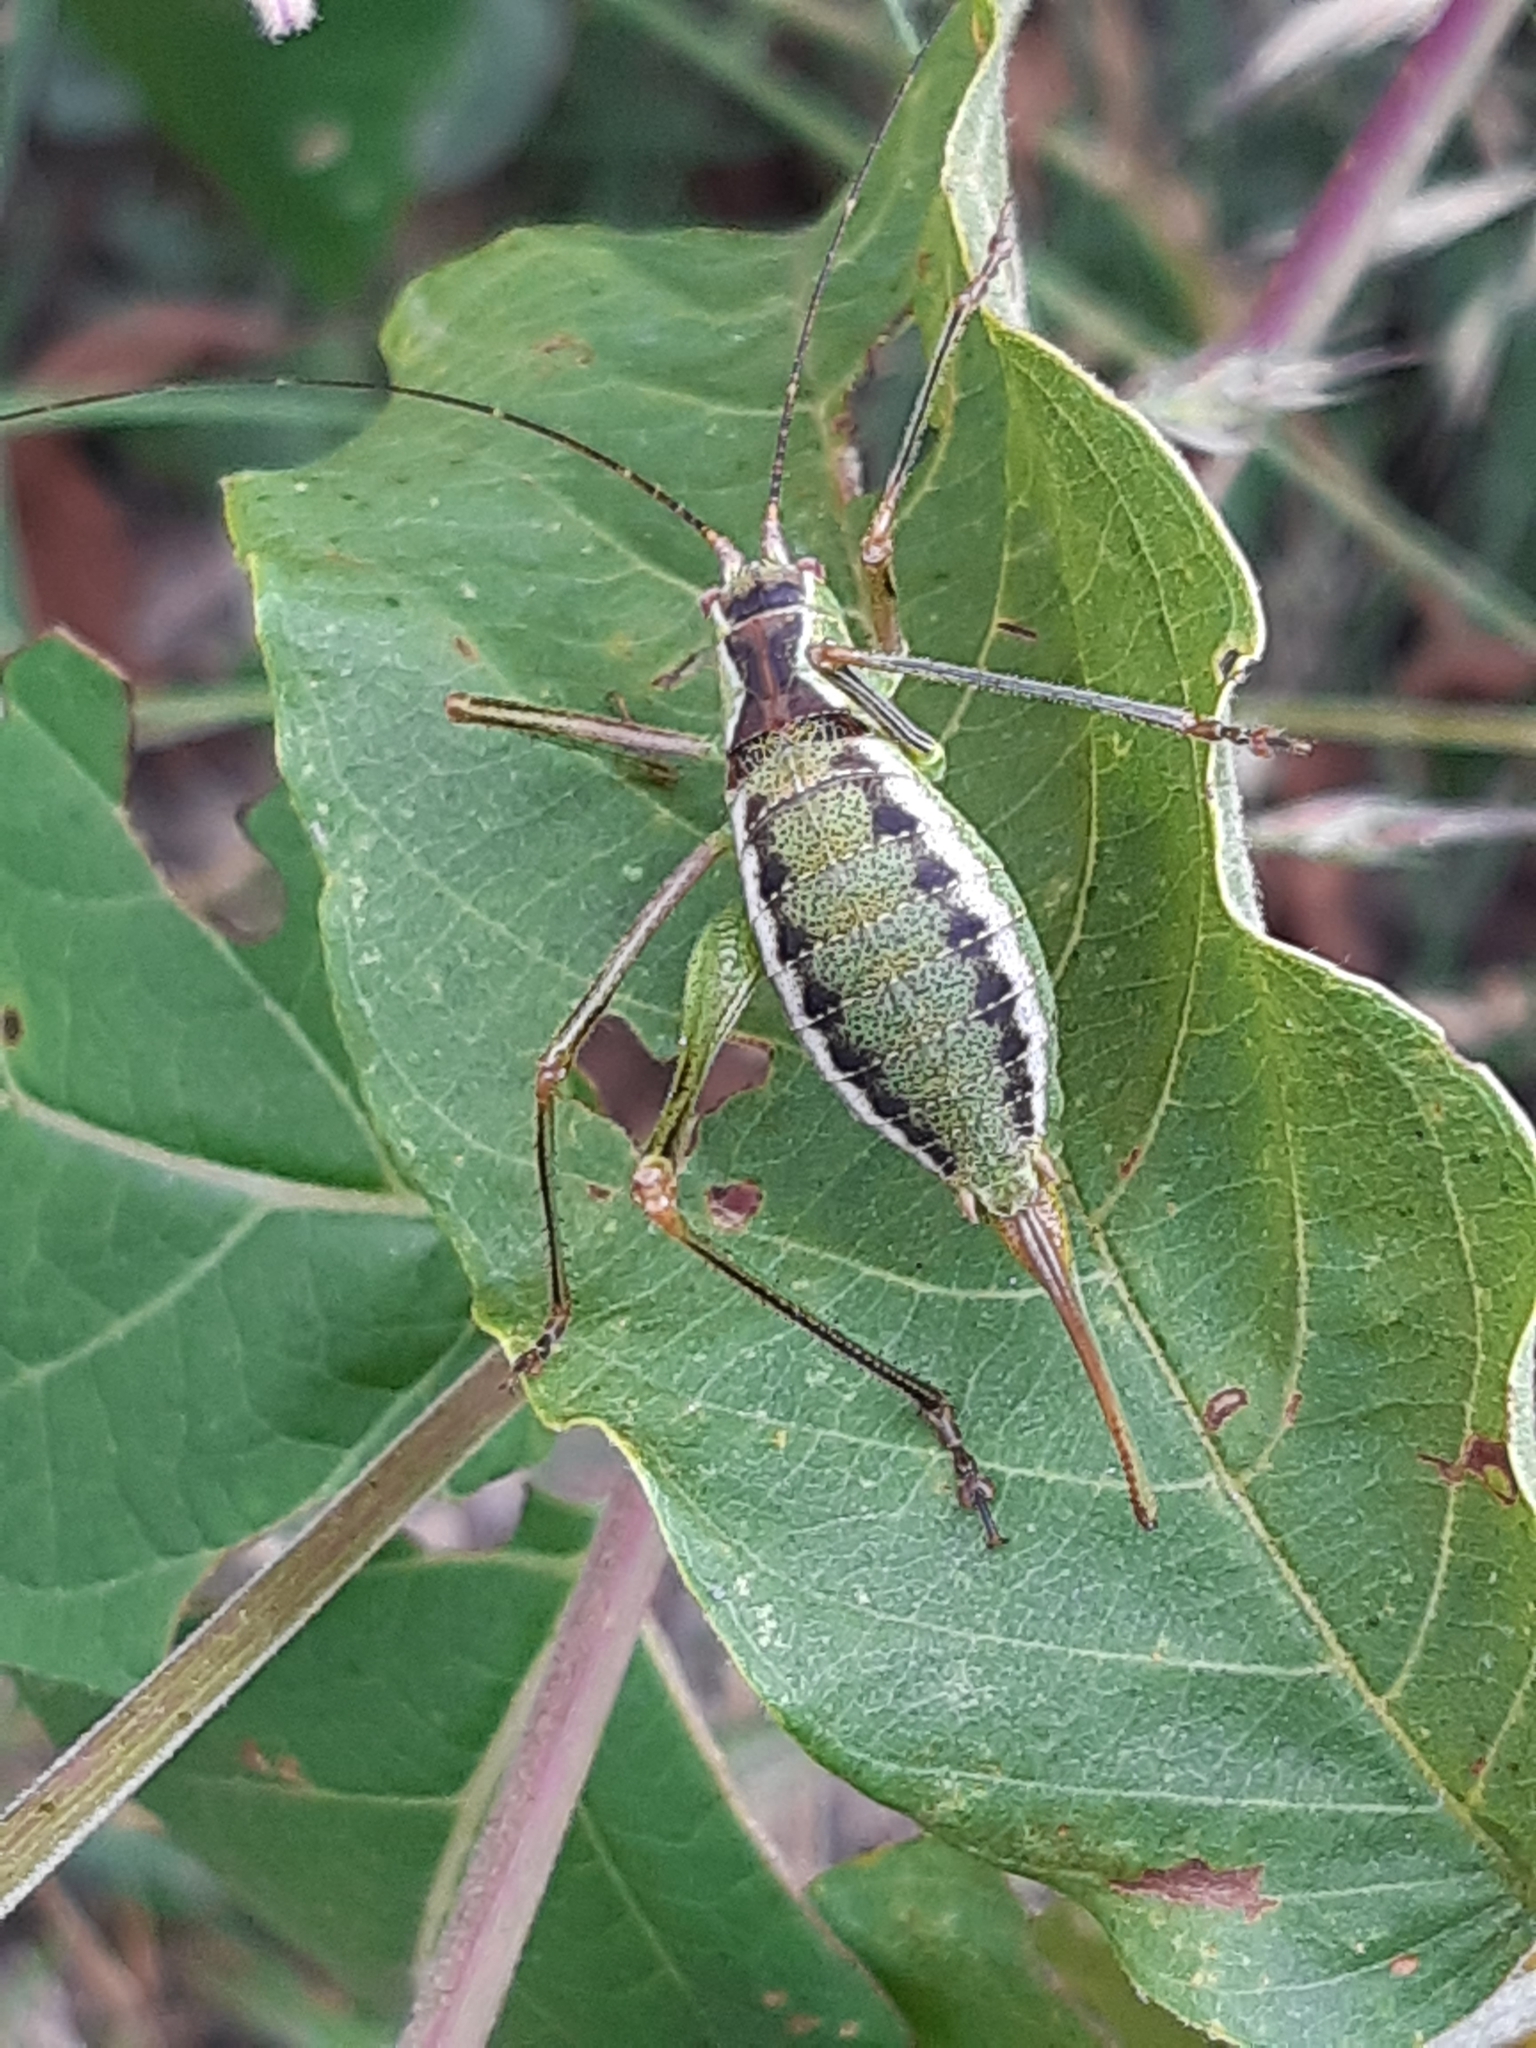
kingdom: Animalia
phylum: Arthropoda
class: Insecta
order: Orthoptera
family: Tettigoniidae
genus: Obolopteryx
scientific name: Obolopteryx brevihastata
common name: Common short-winged katydid
